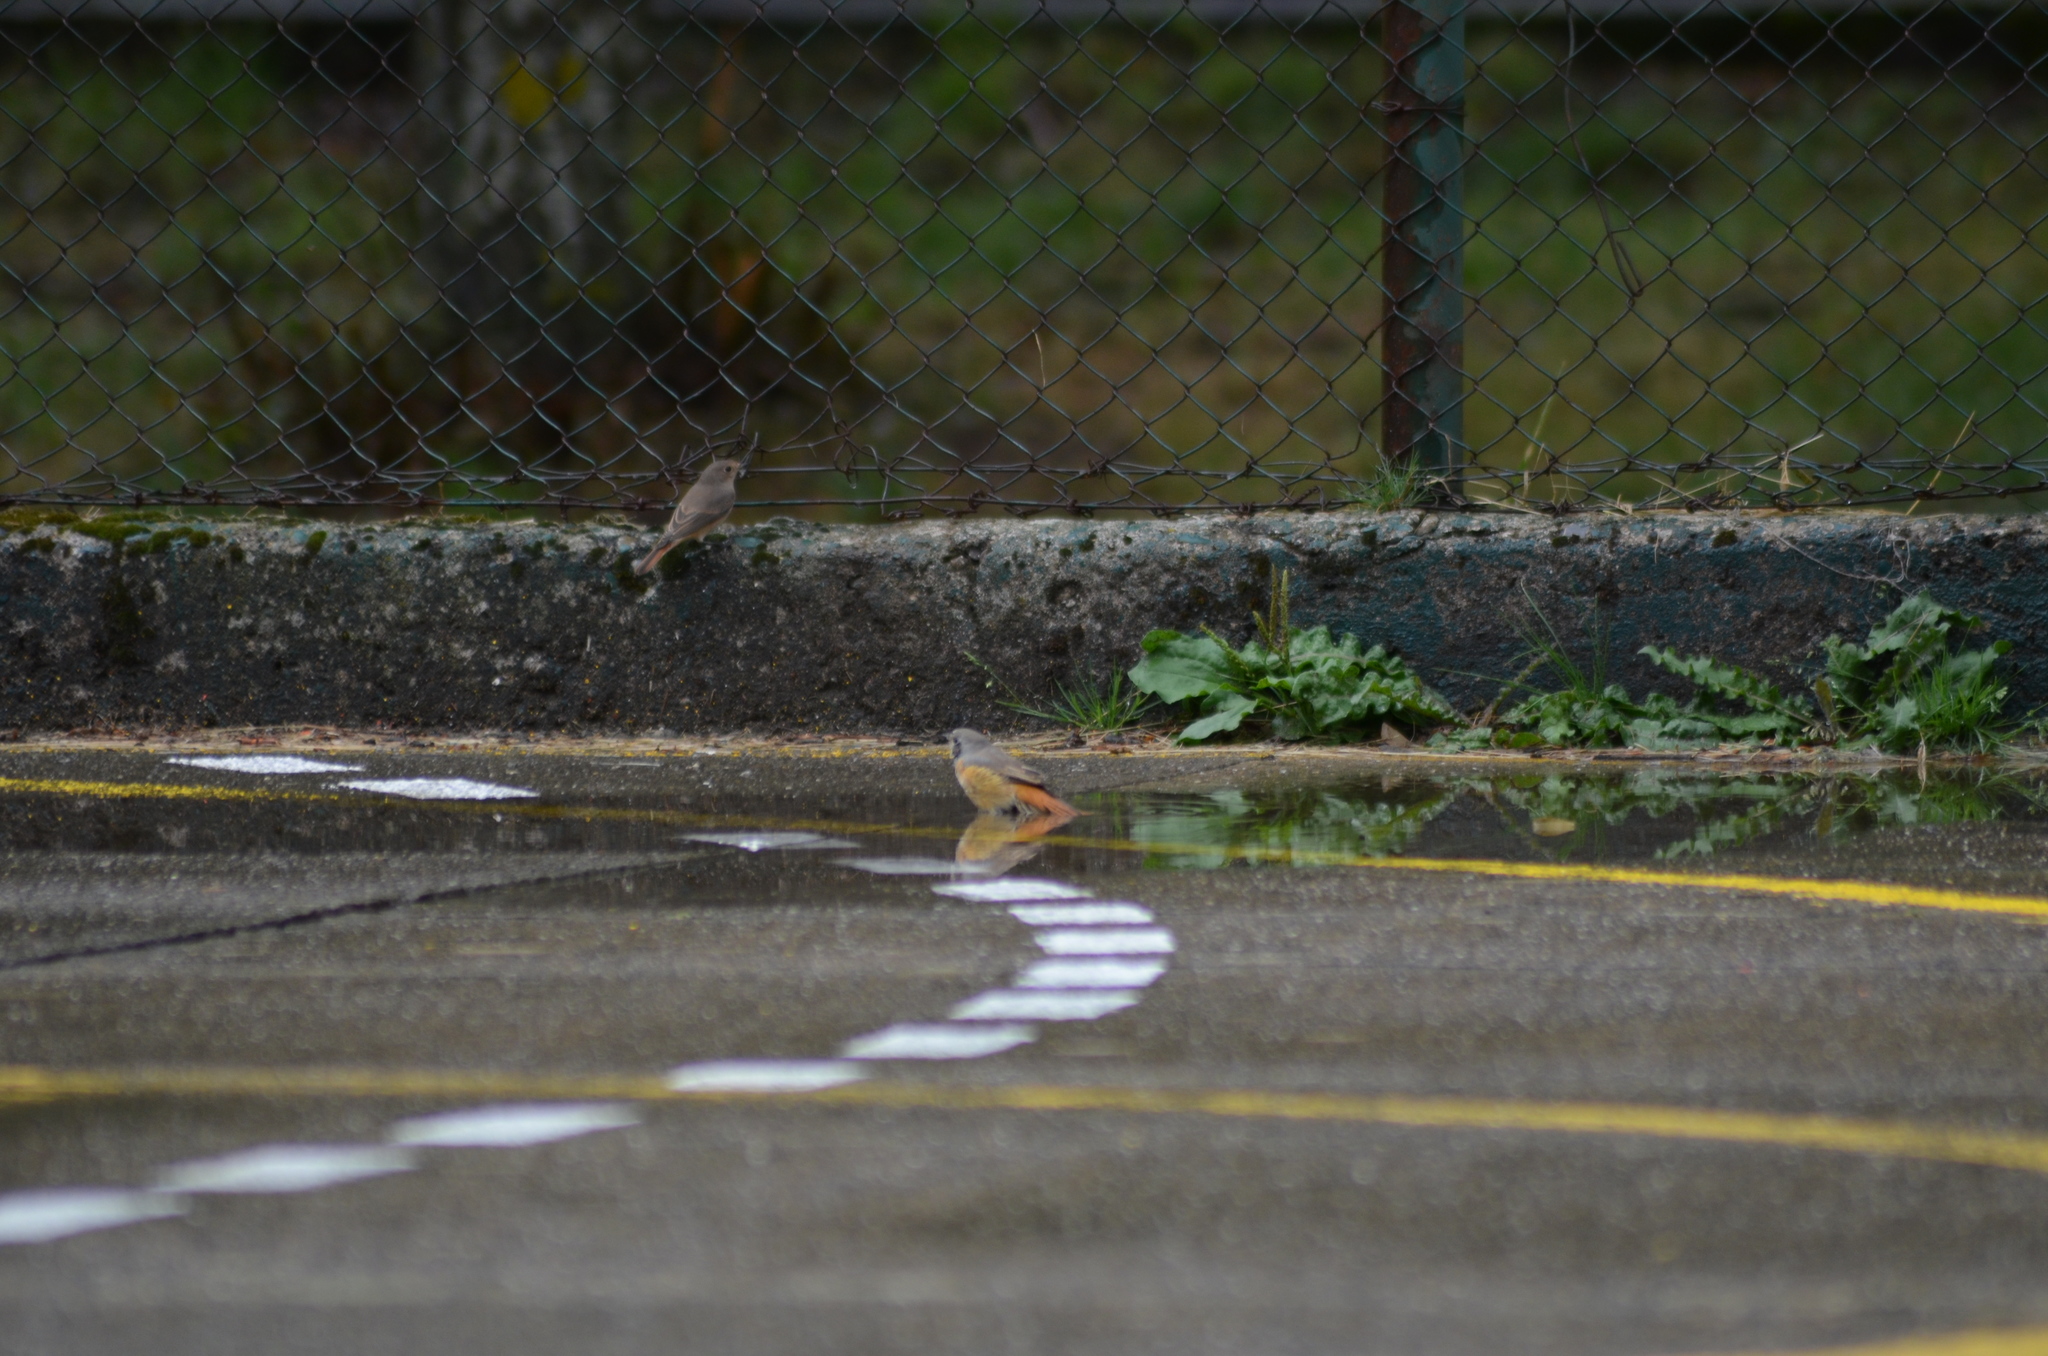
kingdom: Animalia
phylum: Chordata
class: Aves
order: Passeriformes
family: Muscicapidae
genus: Phoenicurus
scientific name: Phoenicurus phoenicurus
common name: Common redstart
